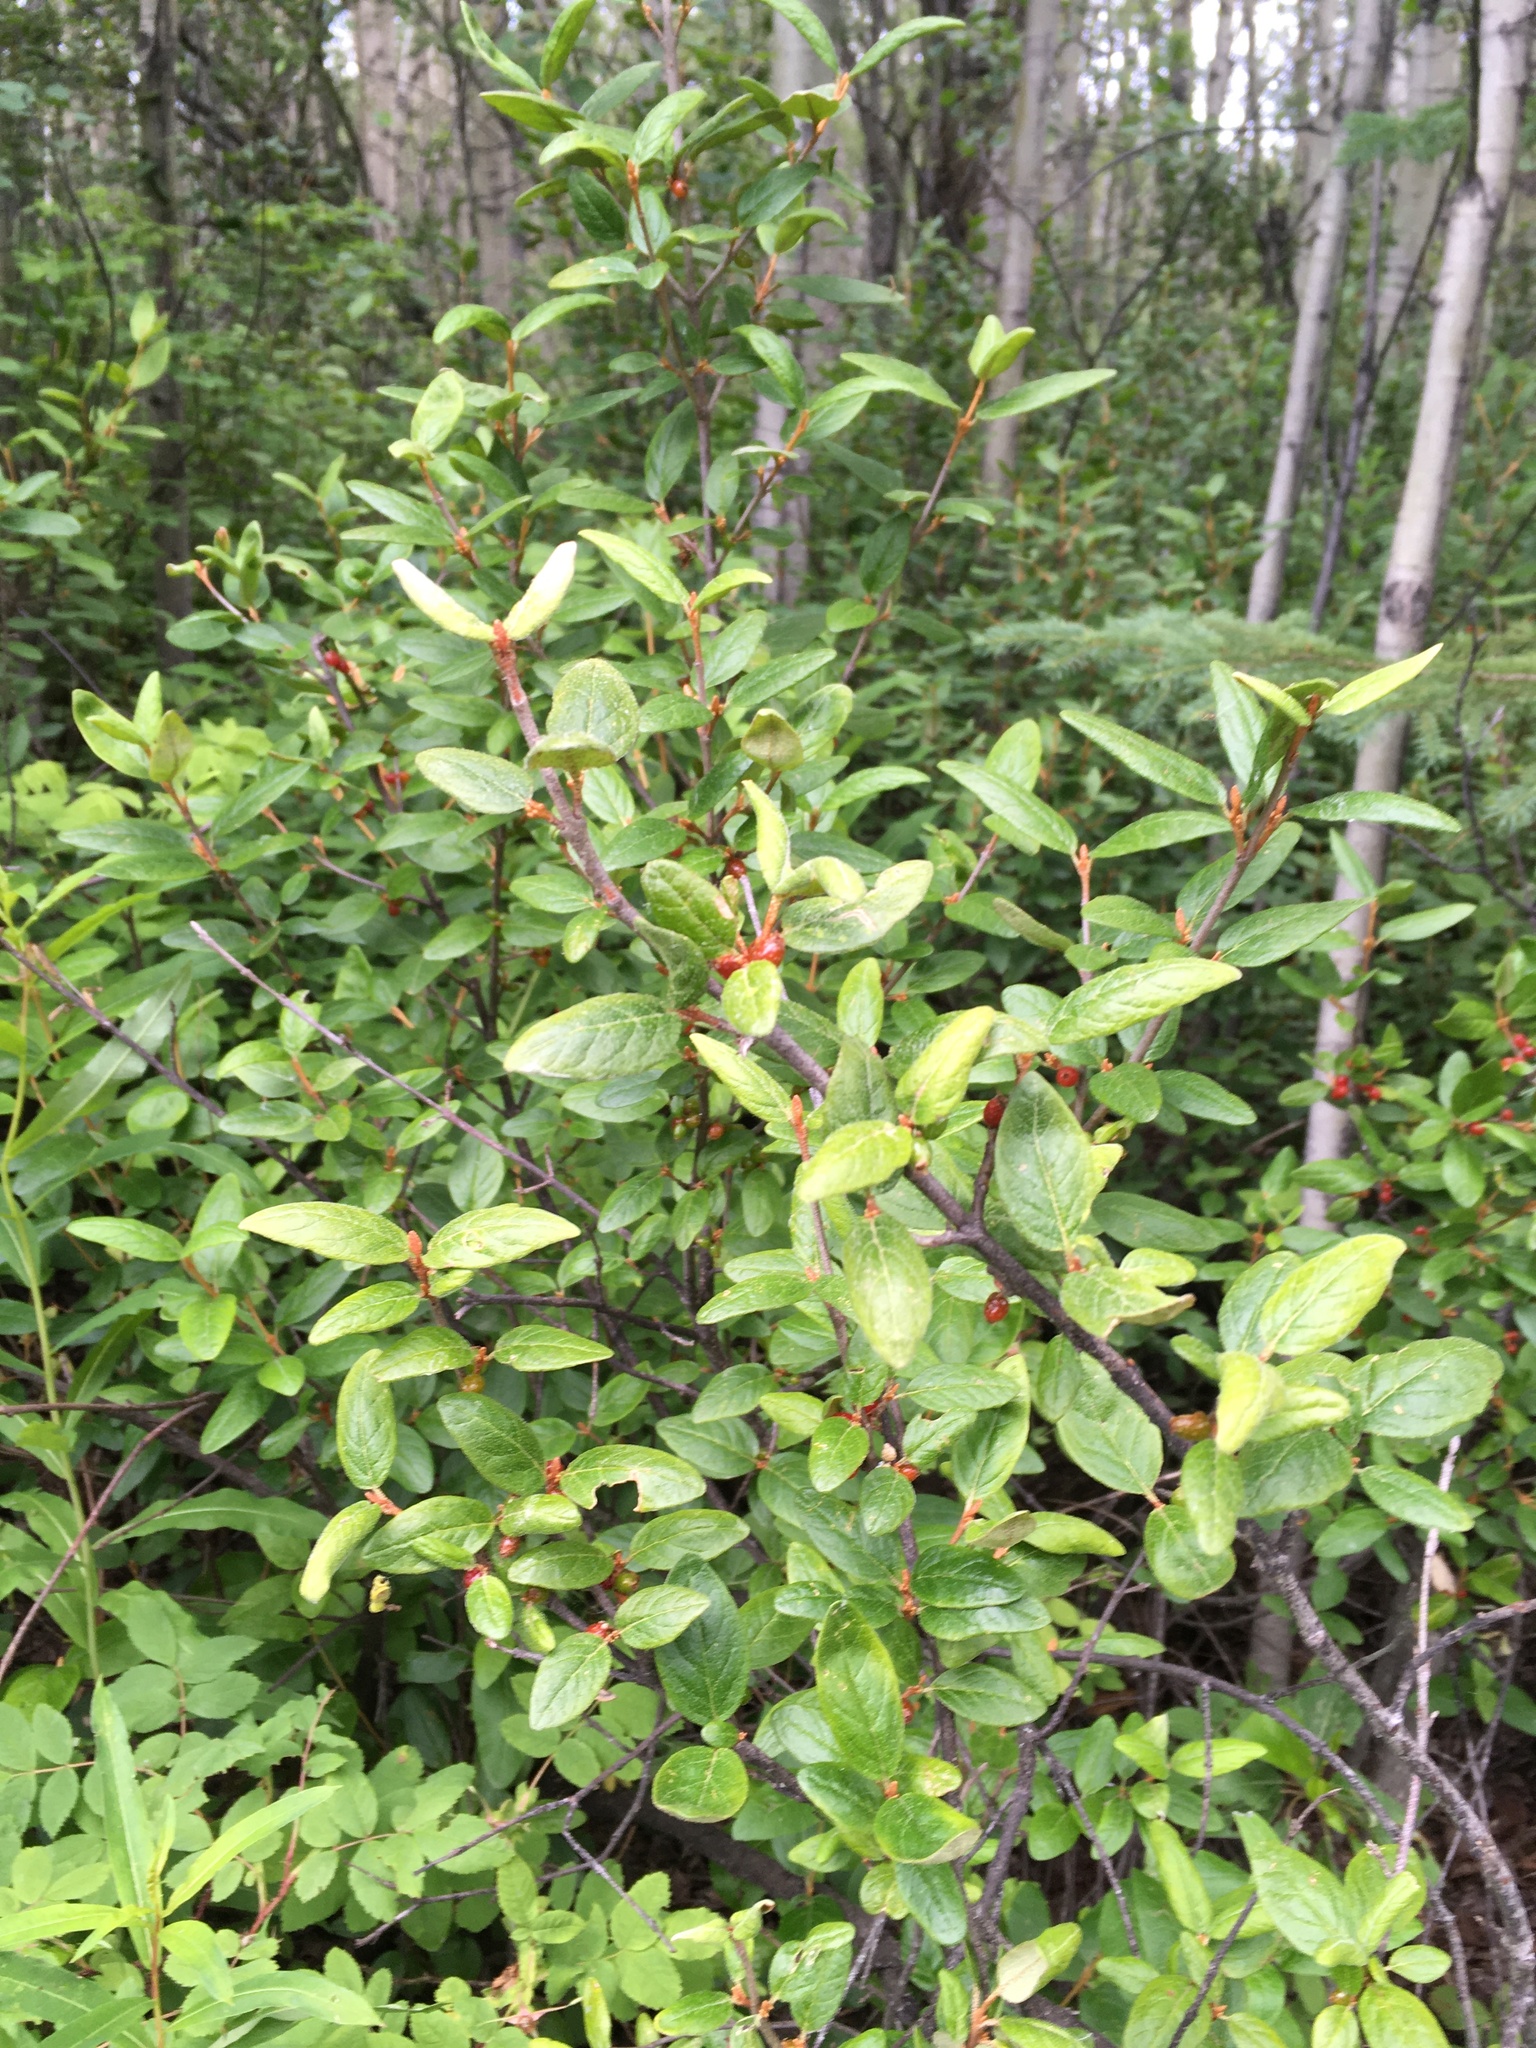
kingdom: Plantae
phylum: Tracheophyta
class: Magnoliopsida
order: Rosales
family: Elaeagnaceae
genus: Shepherdia
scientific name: Shepherdia canadensis
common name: Soapberry
